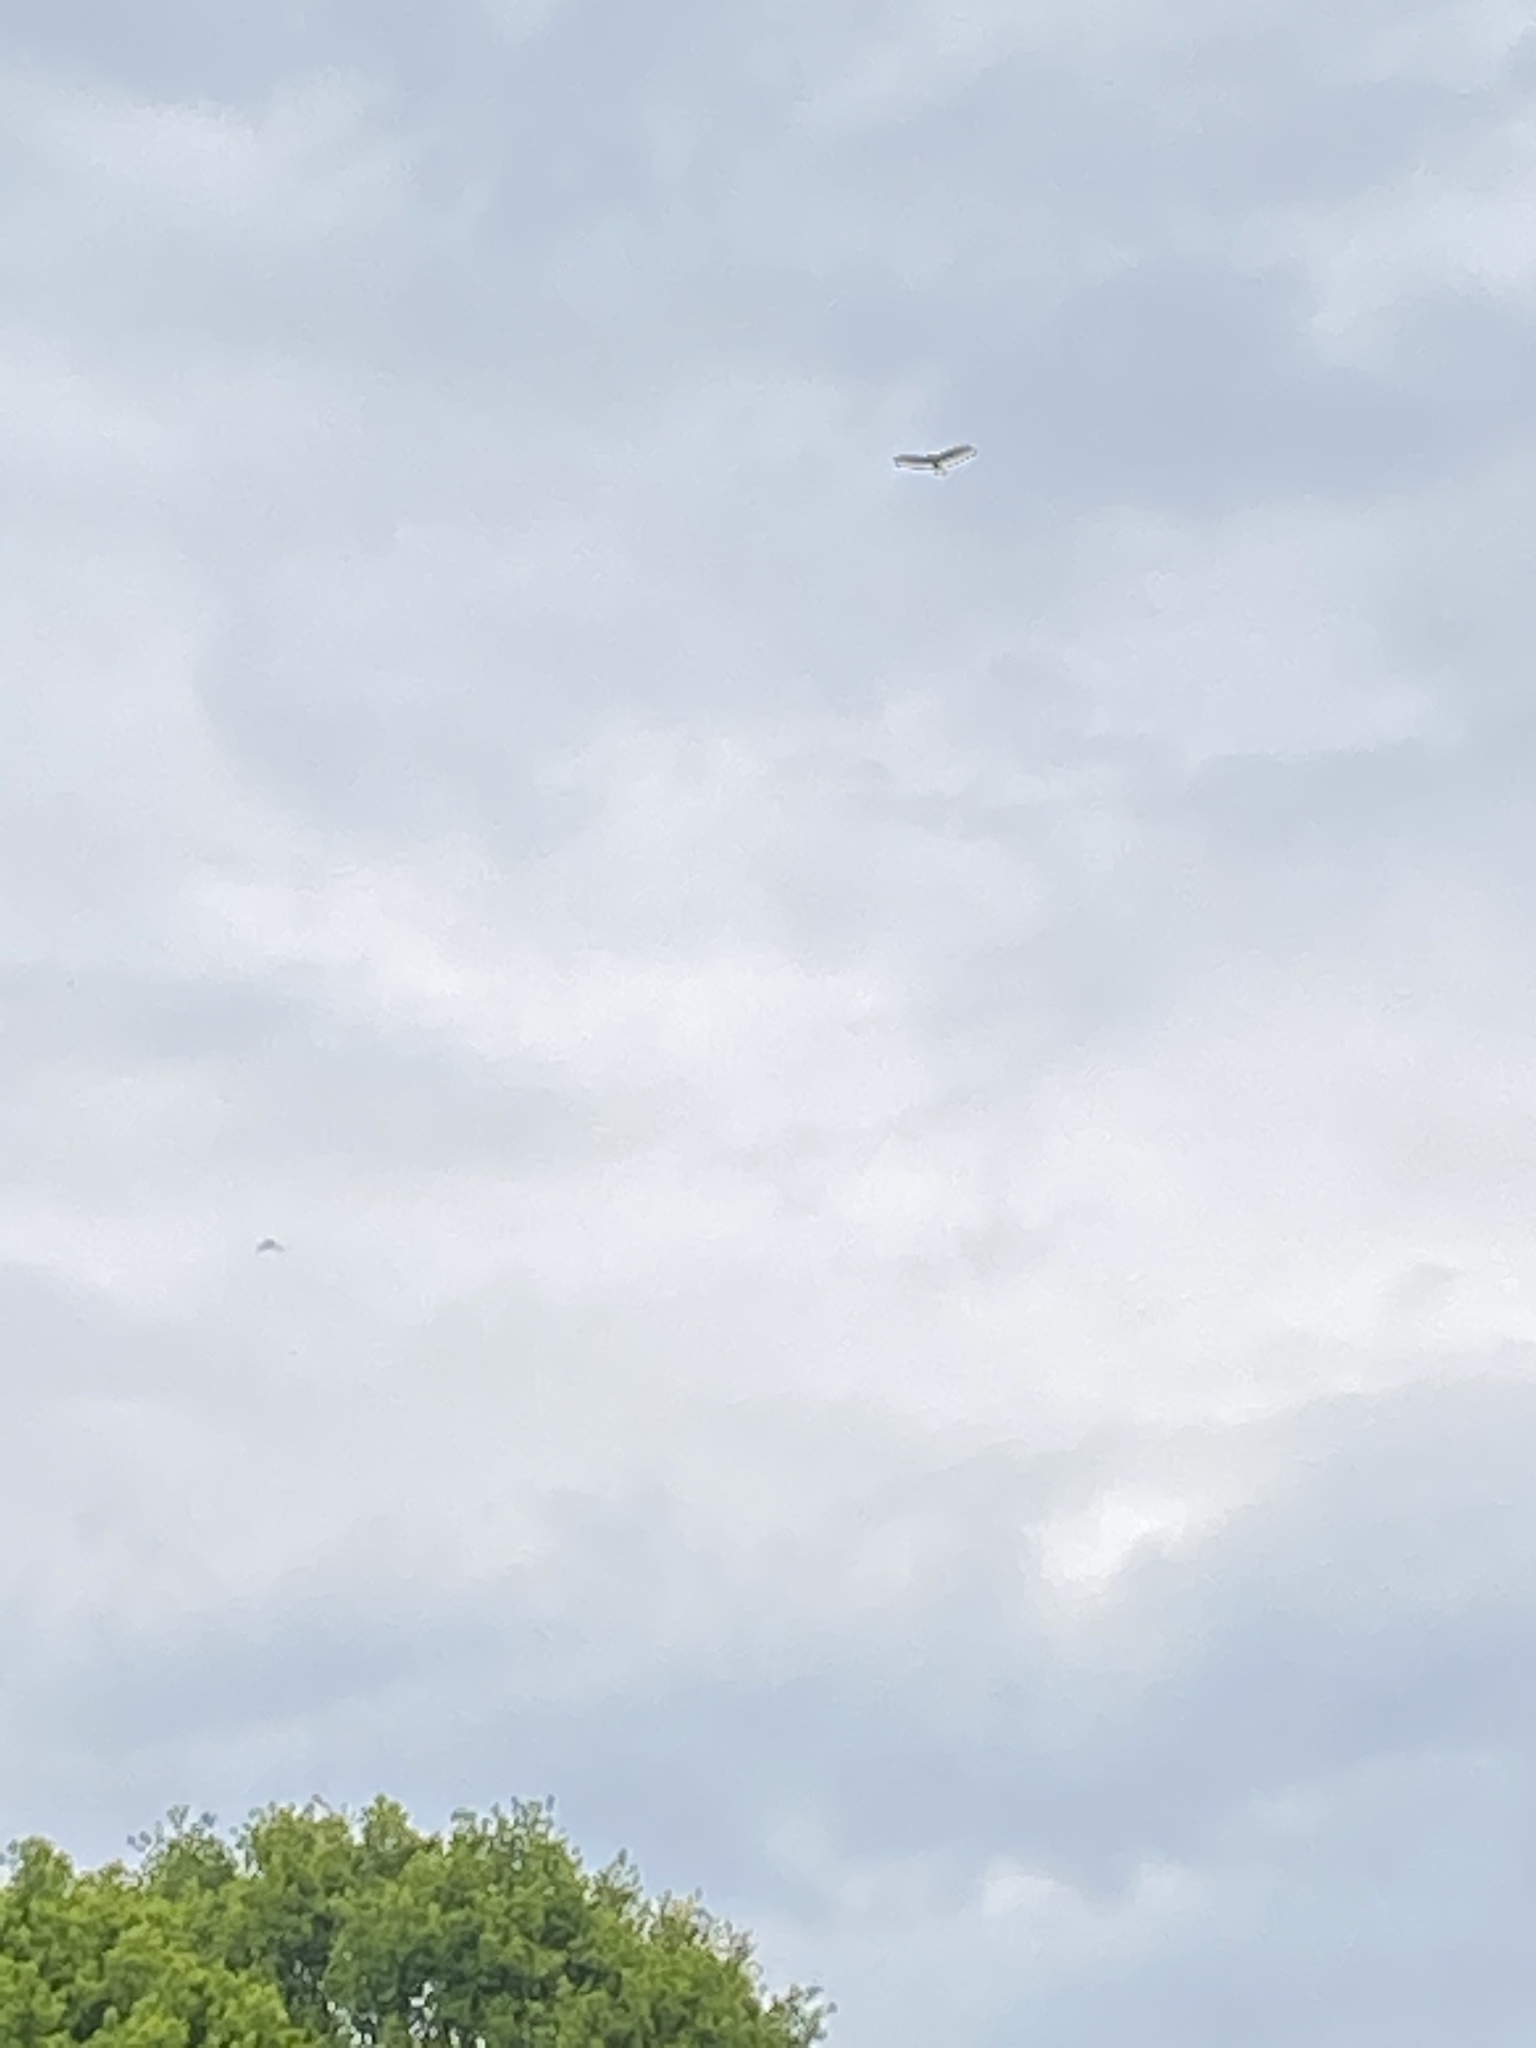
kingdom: Animalia
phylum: Chordata
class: Aves
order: Accipitriformes
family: Accipitridae
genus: Buteo
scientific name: Buteo buteo
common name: Common buzzard
